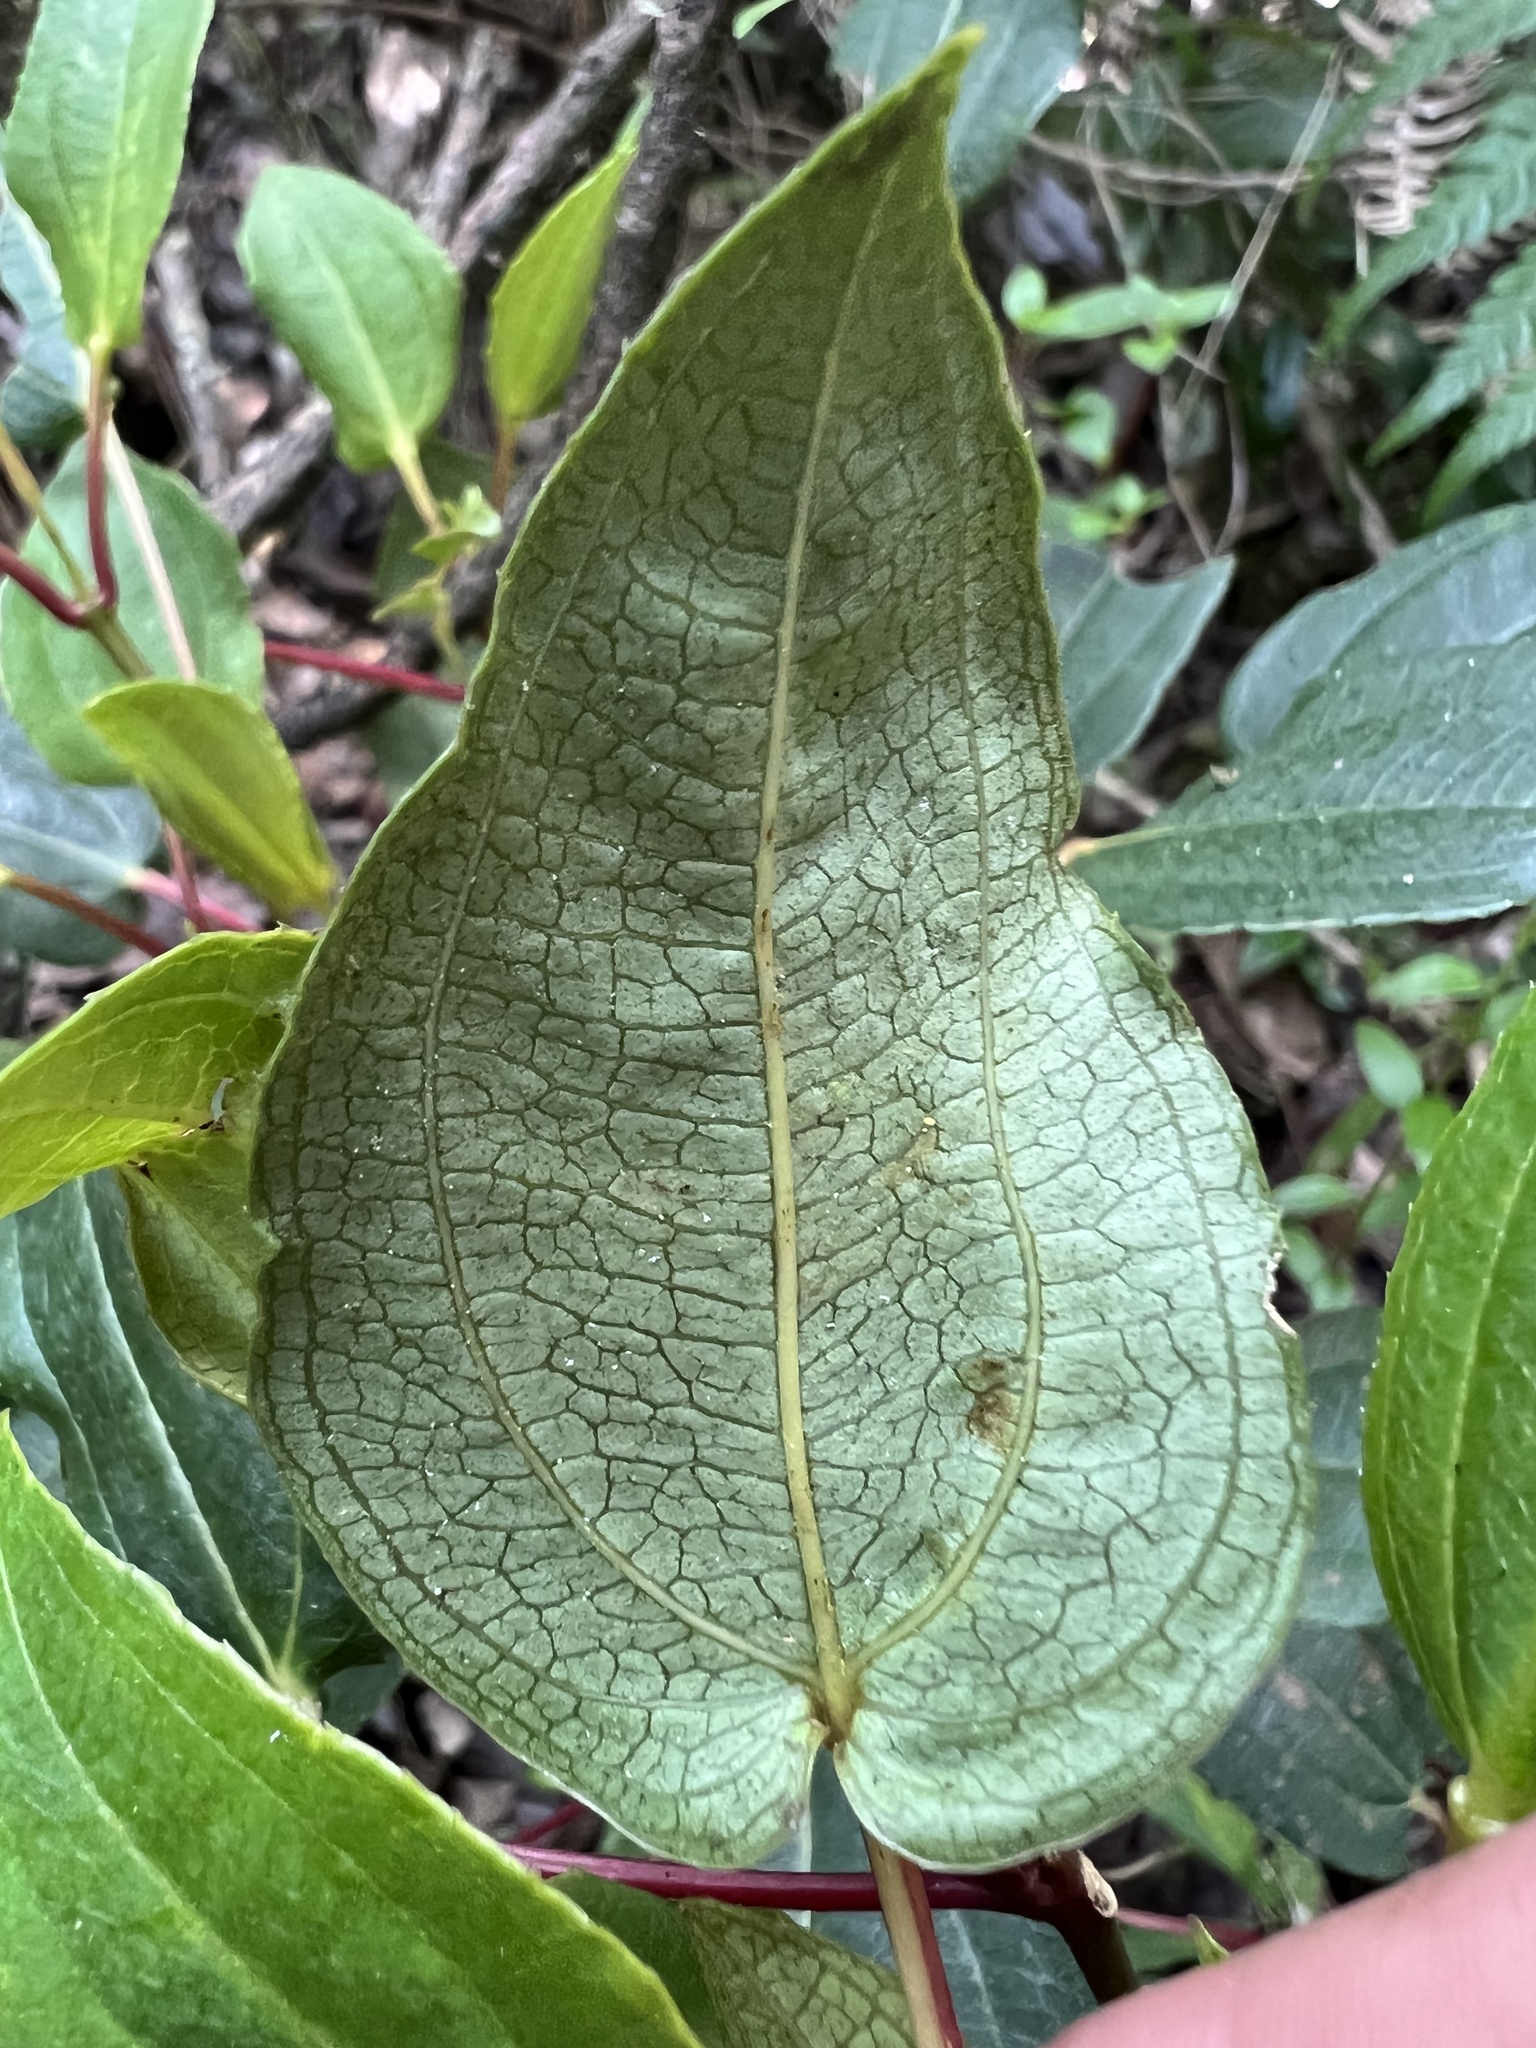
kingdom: Plantae
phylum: Tracheophyta
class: Magnoliopsida
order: Myrtales
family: Melastomataceae
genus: Axinaea
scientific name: Axinaea scutigera
